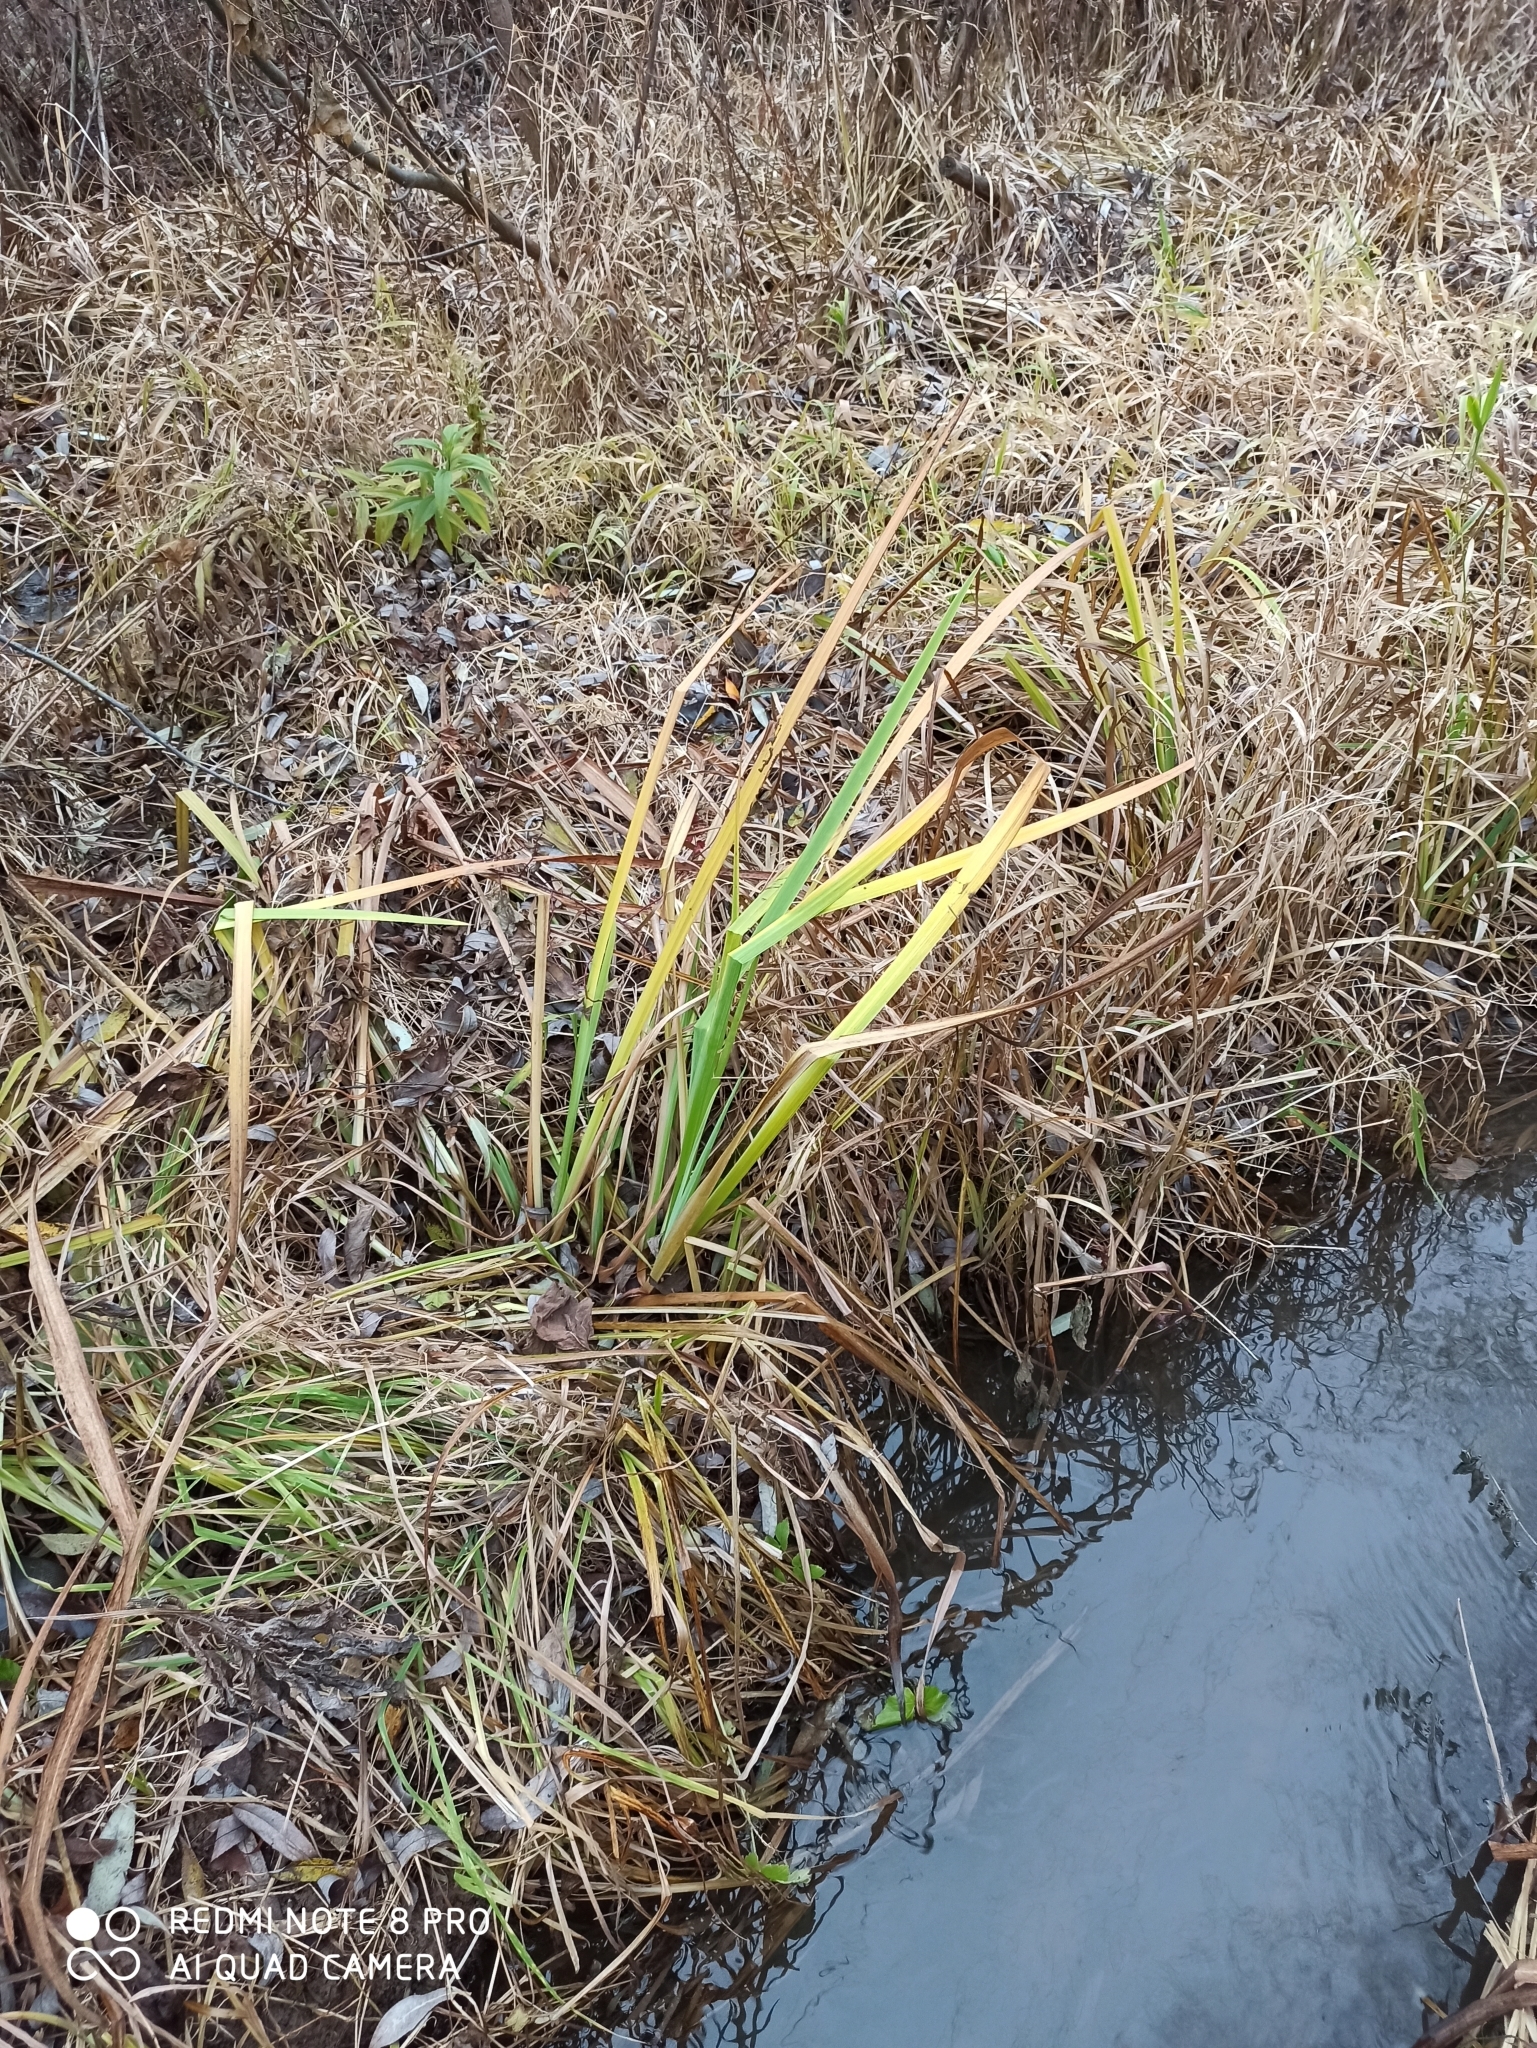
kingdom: Plantae
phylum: Tracheophyta
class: Liliopsida
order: Asparagales
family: Iridaceae
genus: Iris
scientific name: Iris pseudacorus
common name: Yellow flag
